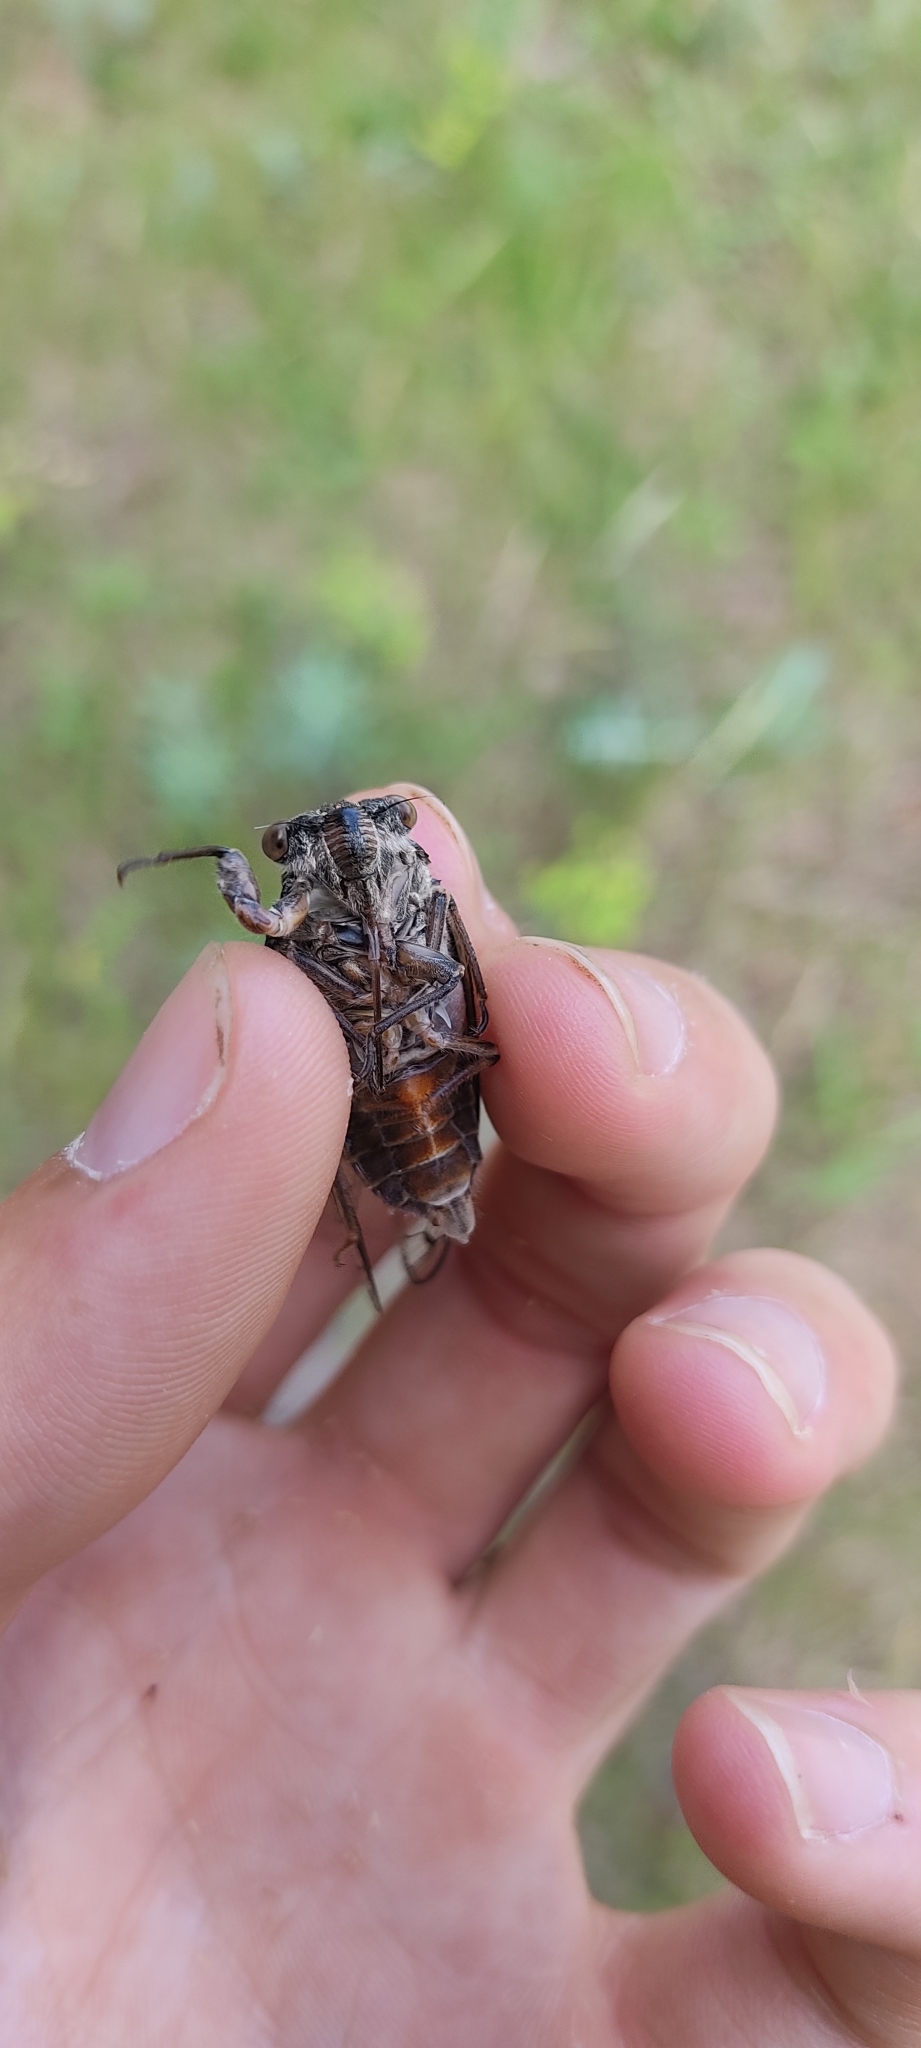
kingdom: Animalia
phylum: Arthropoda
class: Insecta
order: Hemiptera
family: Cicadidae
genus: Cicada
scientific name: Cicada orni
